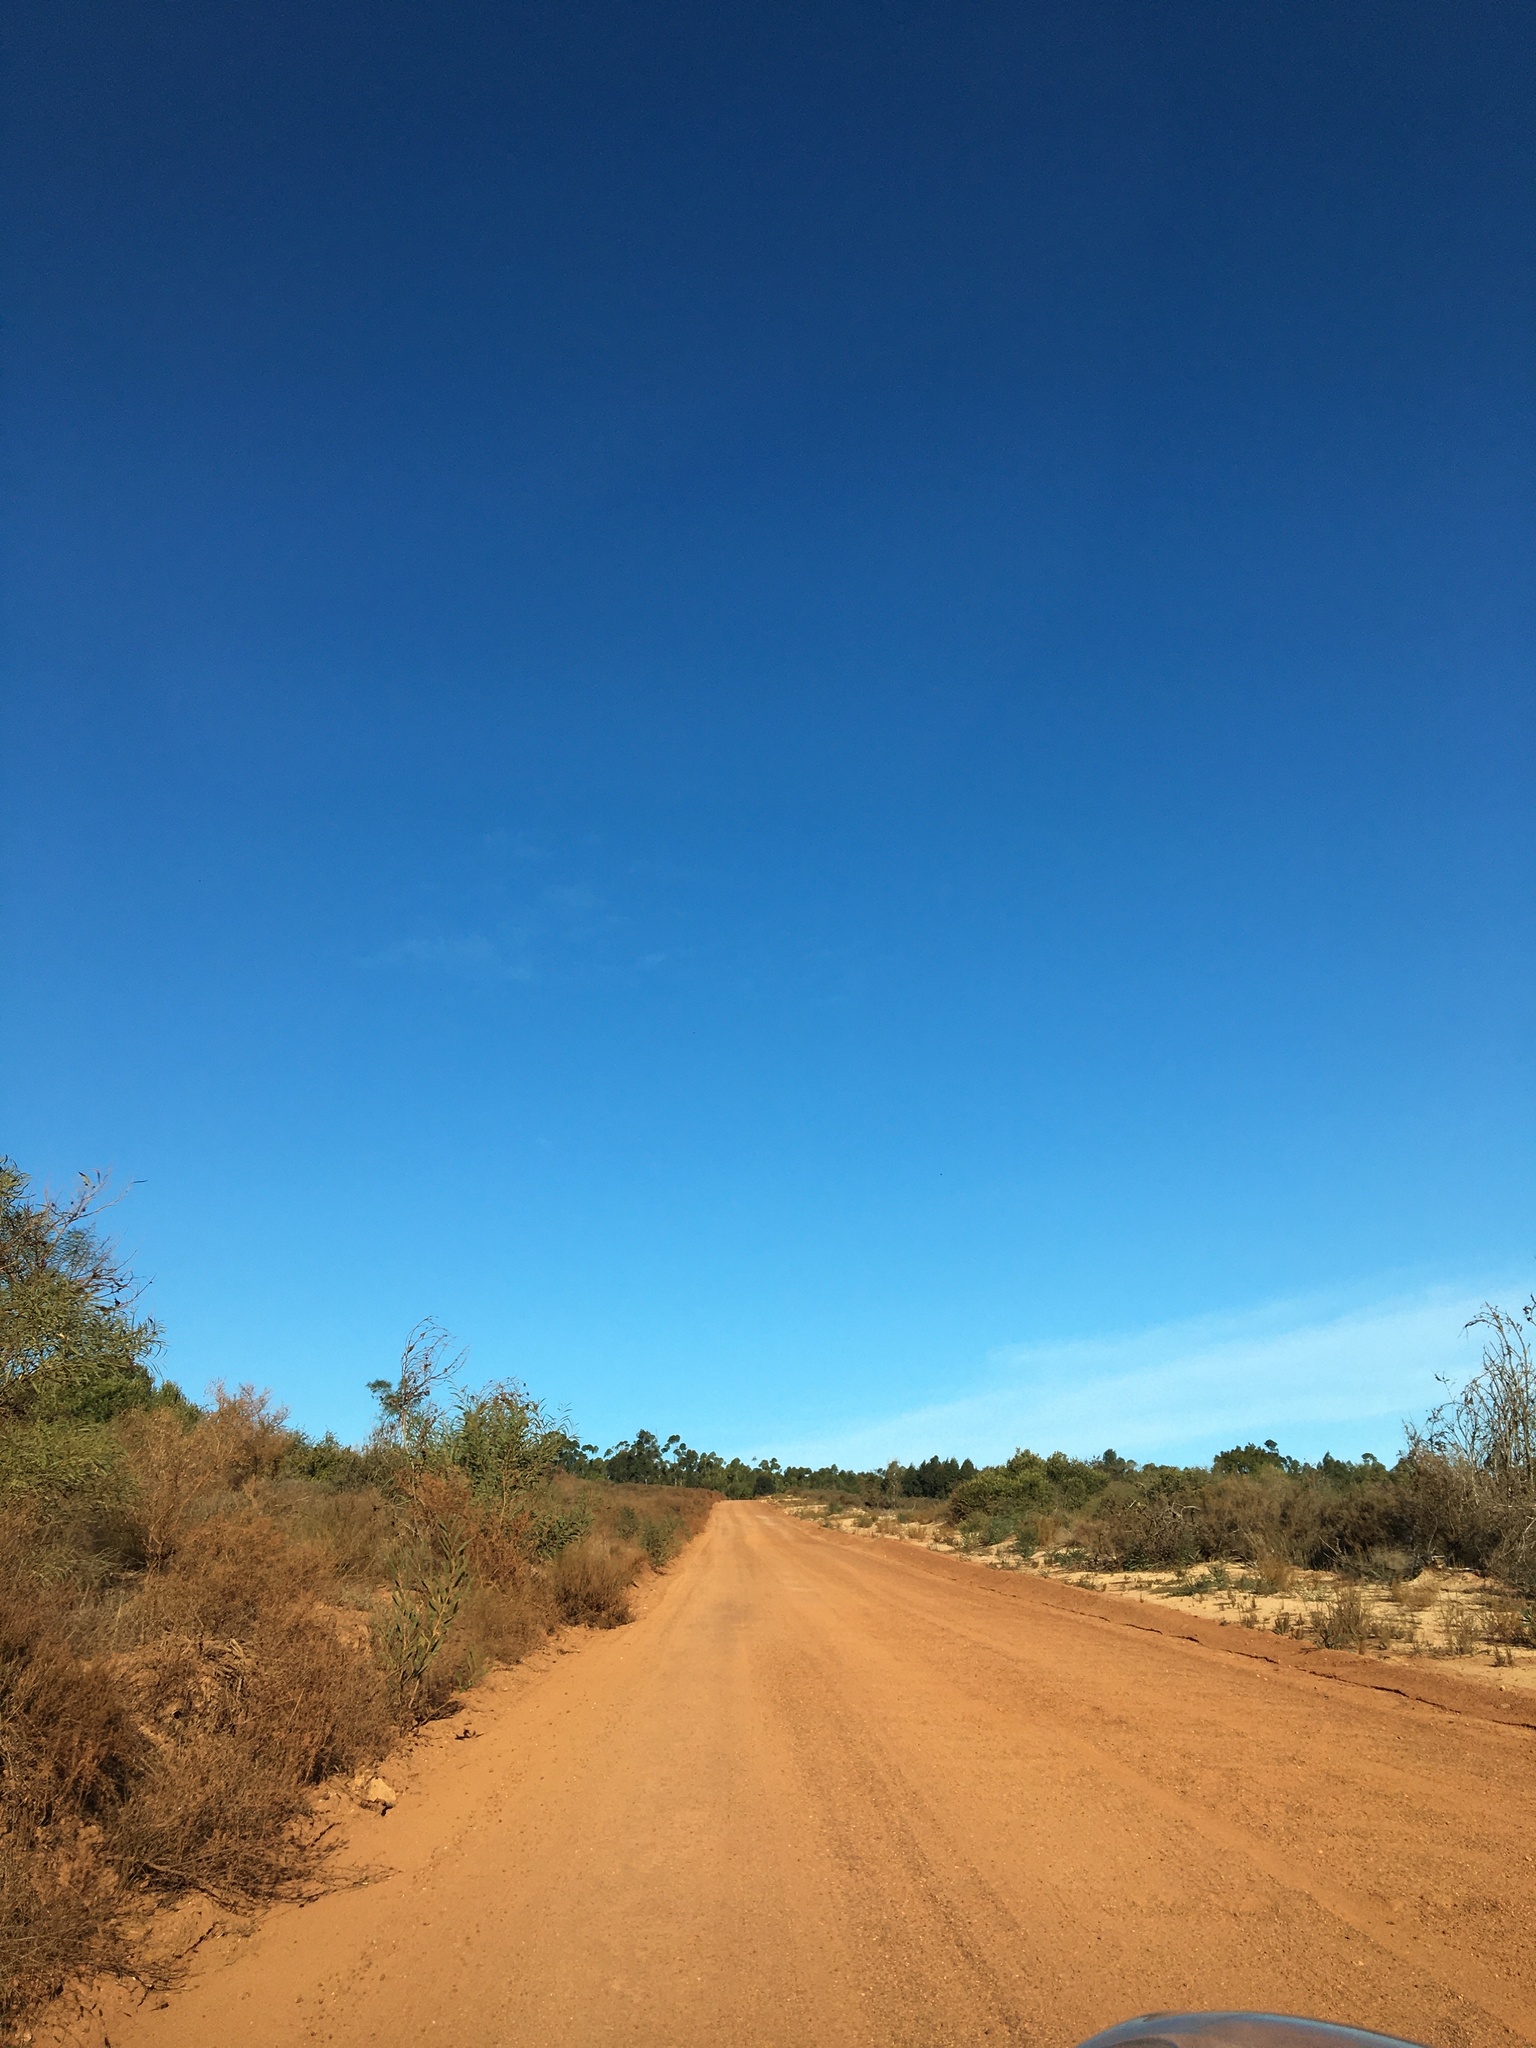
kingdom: Plantae
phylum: Tracheophyta
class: Magnoliopsida
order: Asterales
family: Asteraceae
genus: Dicerothamnus
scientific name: Dicerothamnus rhinocerotis
